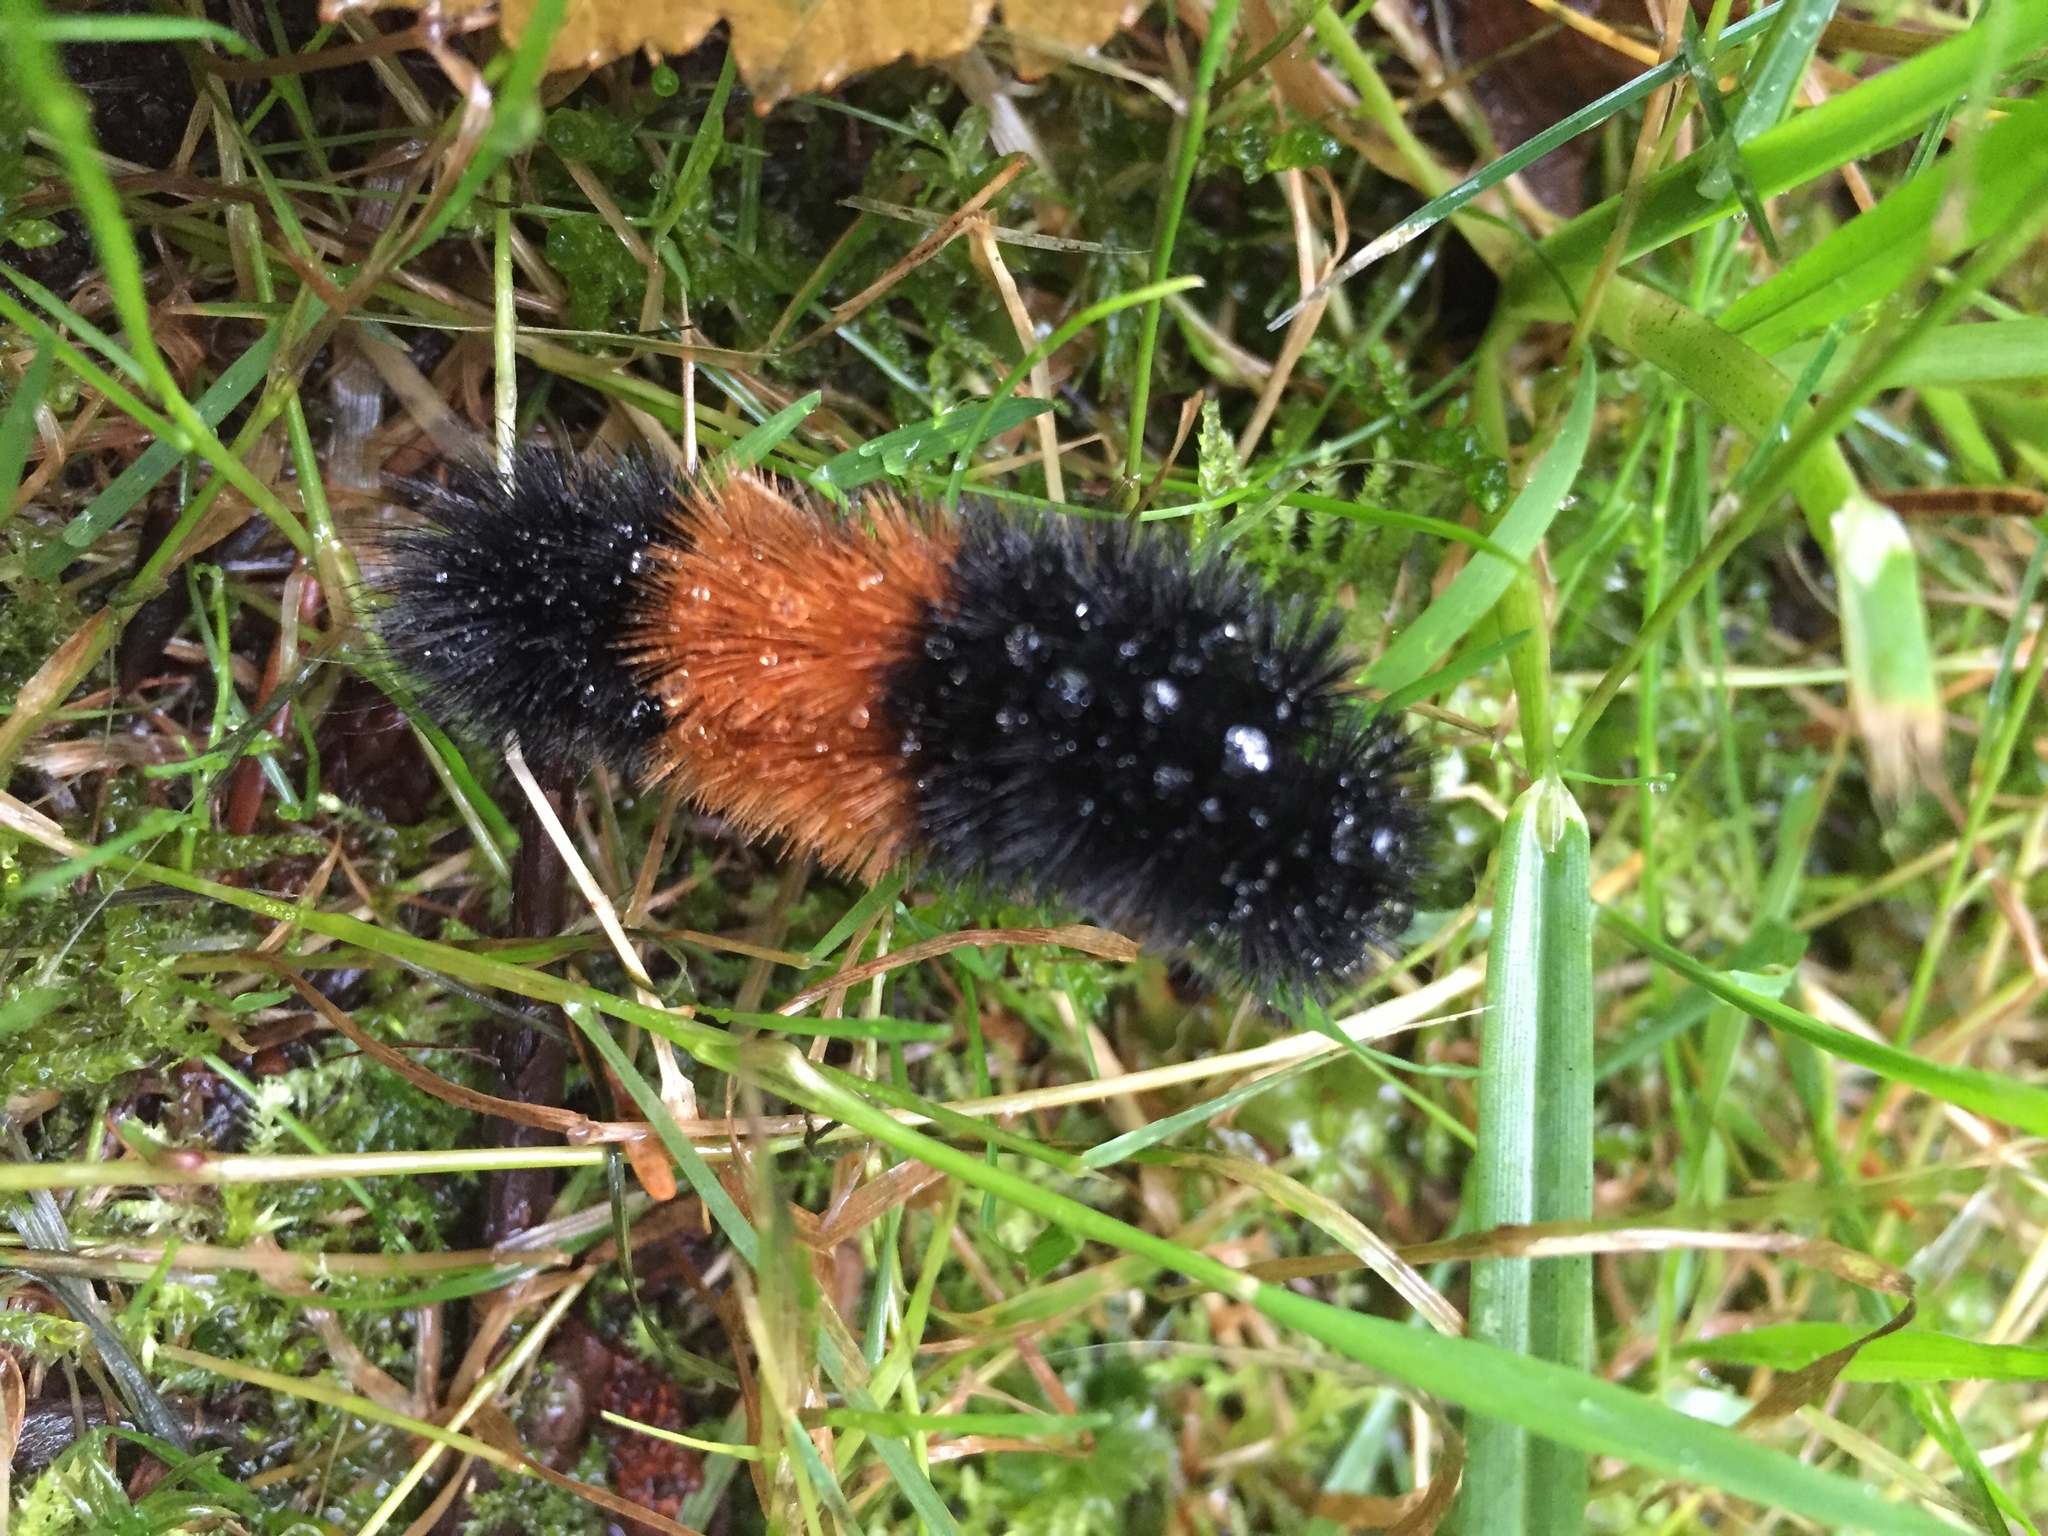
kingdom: Animalia
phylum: Arthropoda
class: Insecta
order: Lepidoptera
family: Erebidae
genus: Pyrrharctia
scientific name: Pyrrharctia isabella
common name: Isabella tiger moth
